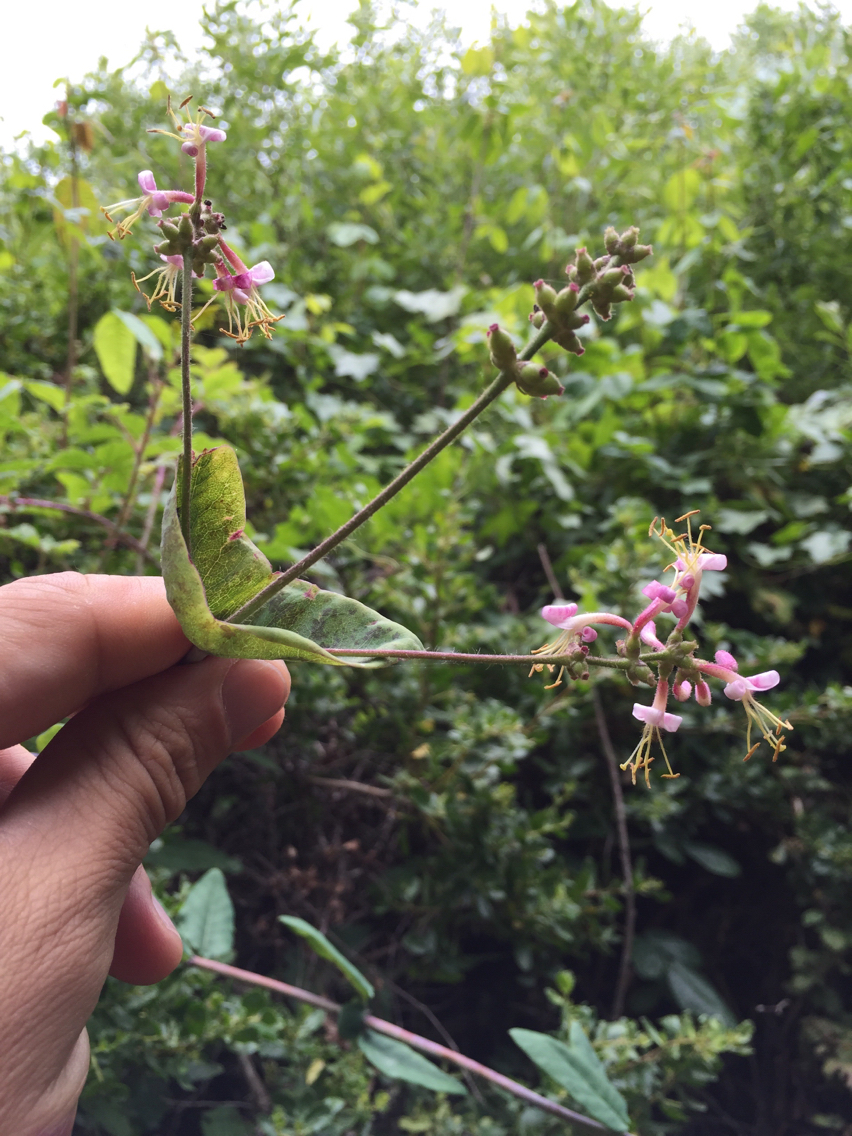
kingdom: Plantae
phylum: Tracheophyta
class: Magnoliopsida
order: Dipsacales
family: Caprifoliaceae
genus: Lonicera
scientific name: Lonicera hispidula
